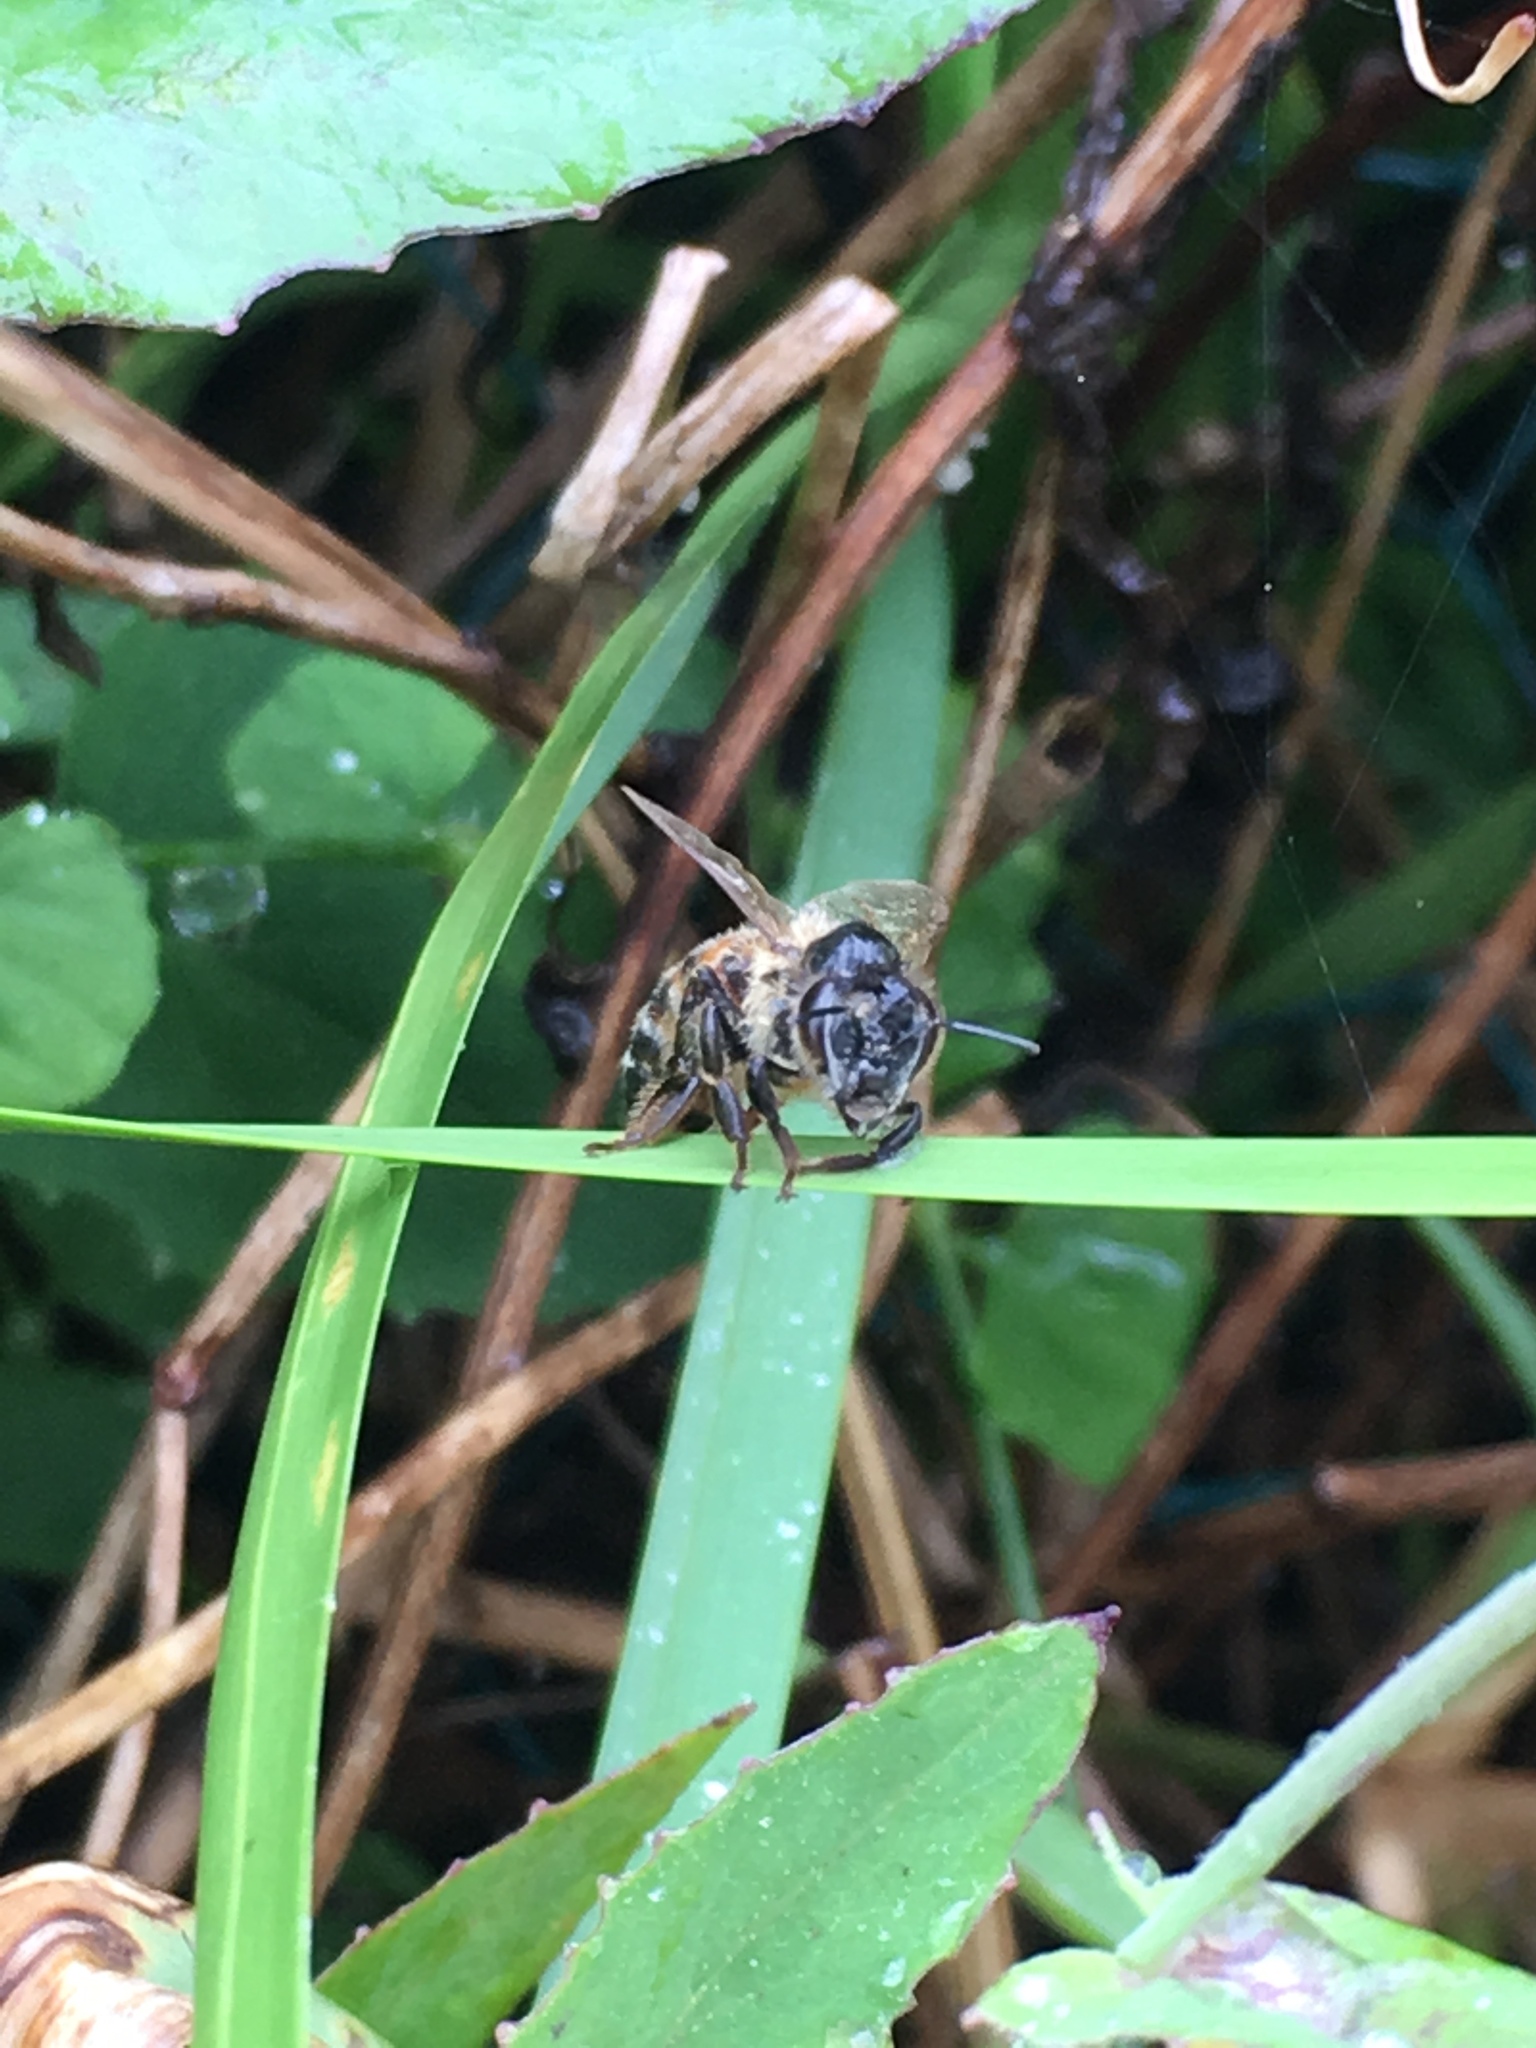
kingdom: Animalia
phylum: Arthropoda
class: Insecta
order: Hymenoptera
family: Apidae
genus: Apis
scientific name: Apis mellifera
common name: Honey bee
